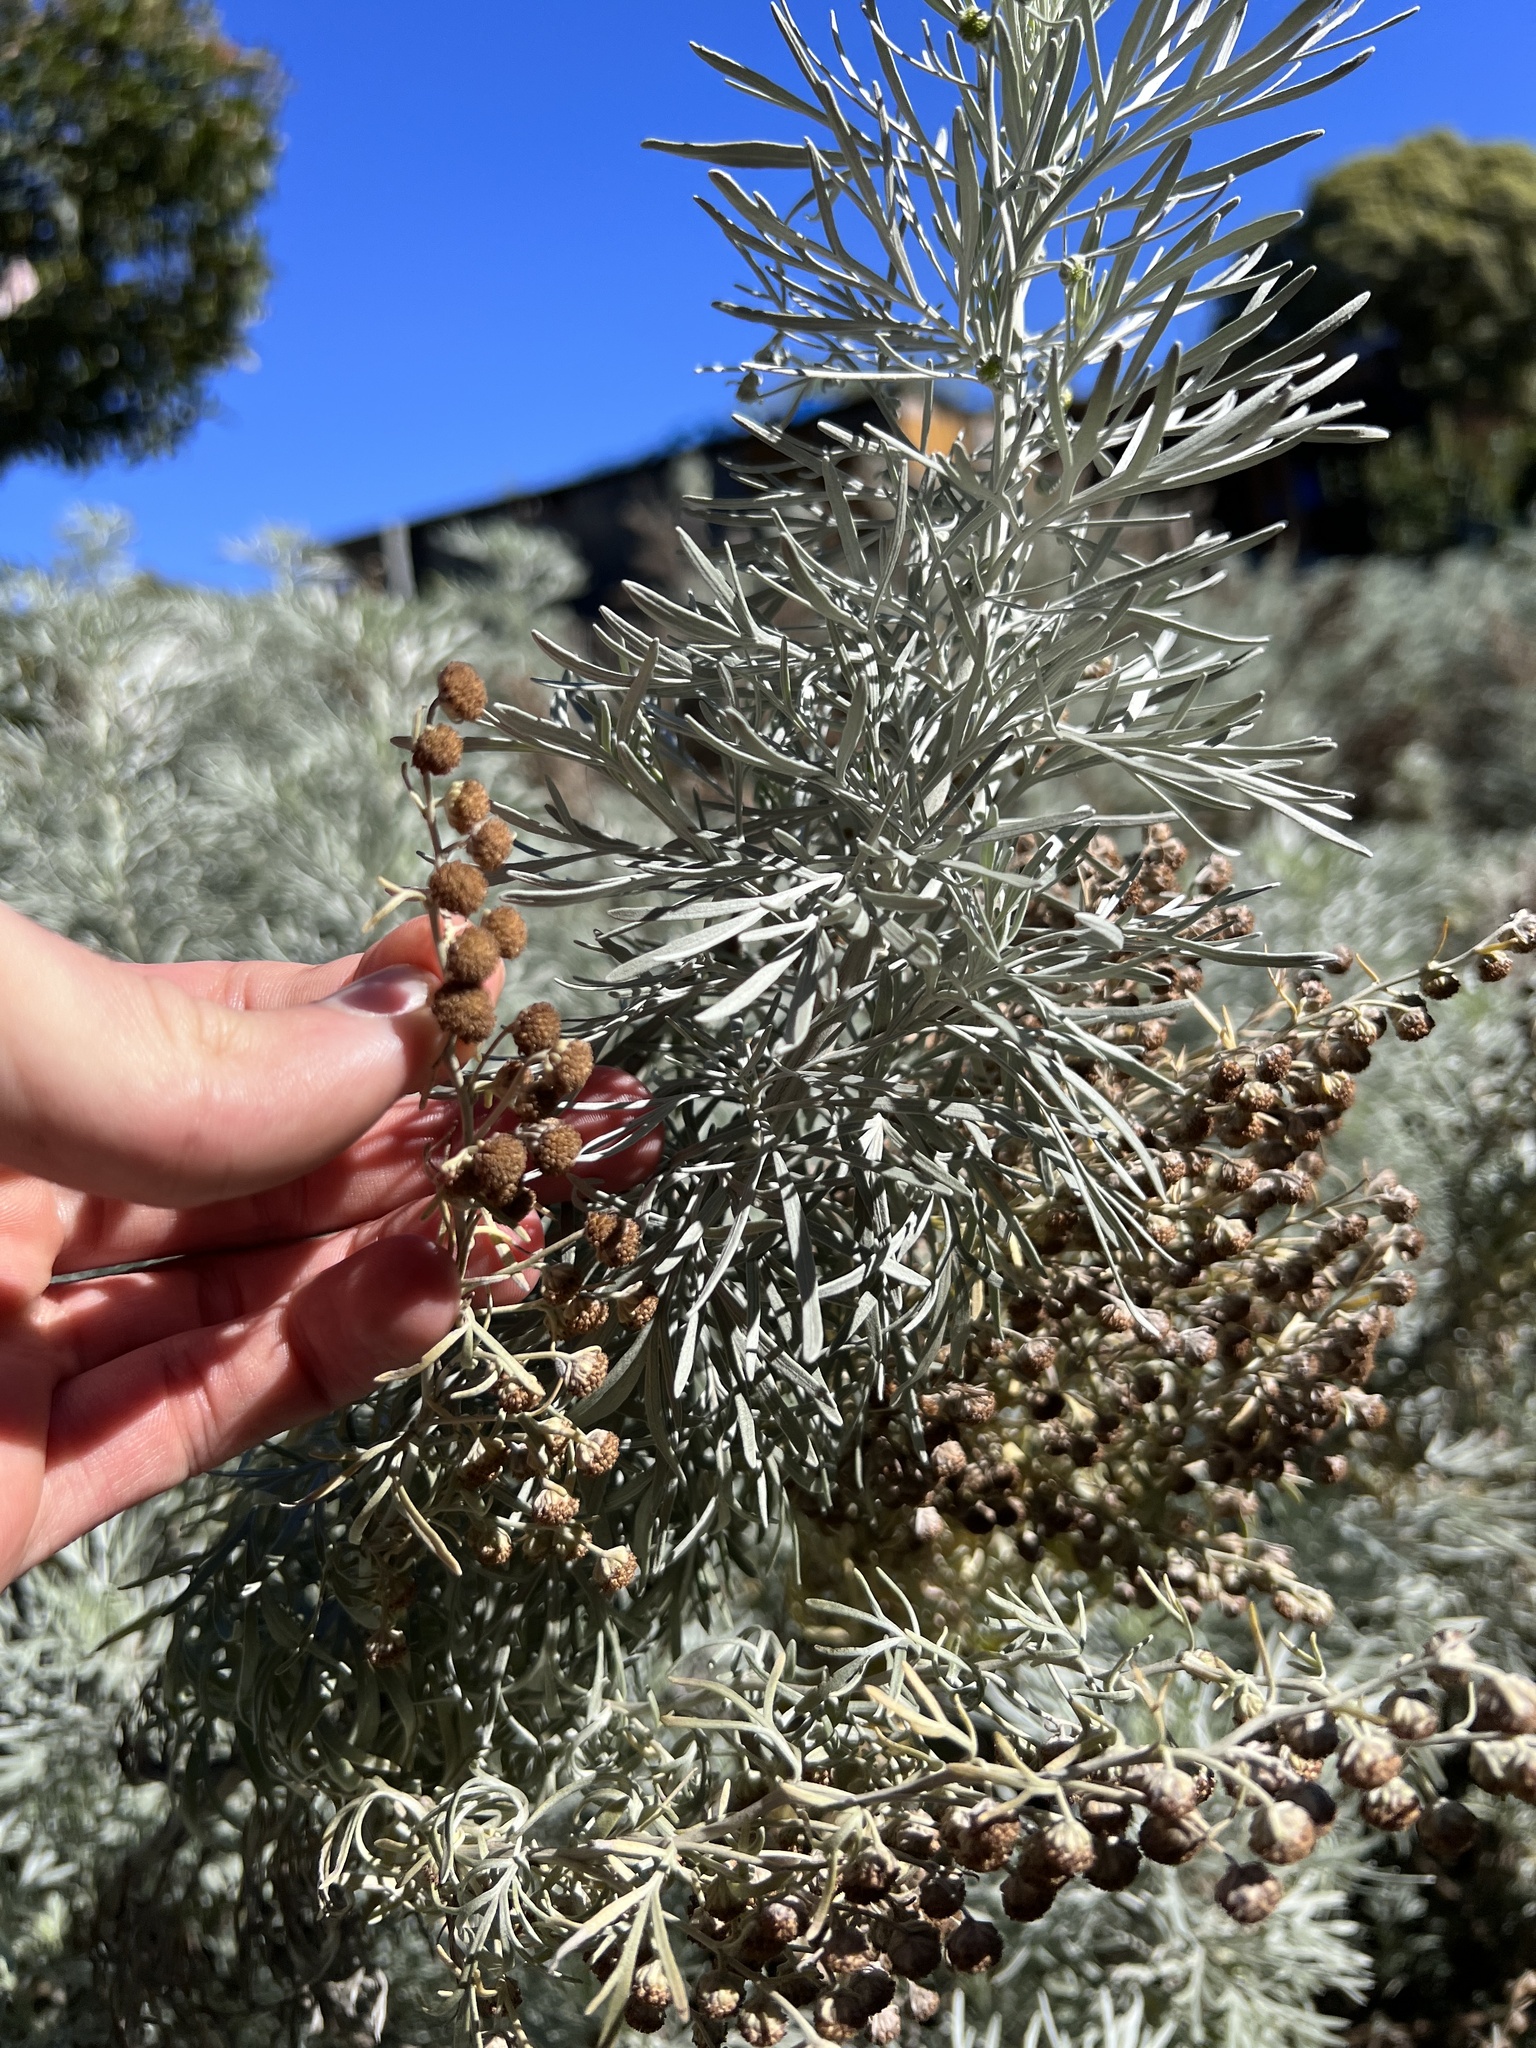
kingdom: Plantae
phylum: Tracheophyta
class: Magnoliopsida
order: Asterales
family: Asteraceae
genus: Artemisia
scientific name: Artemisia absinthium
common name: Wormwood
